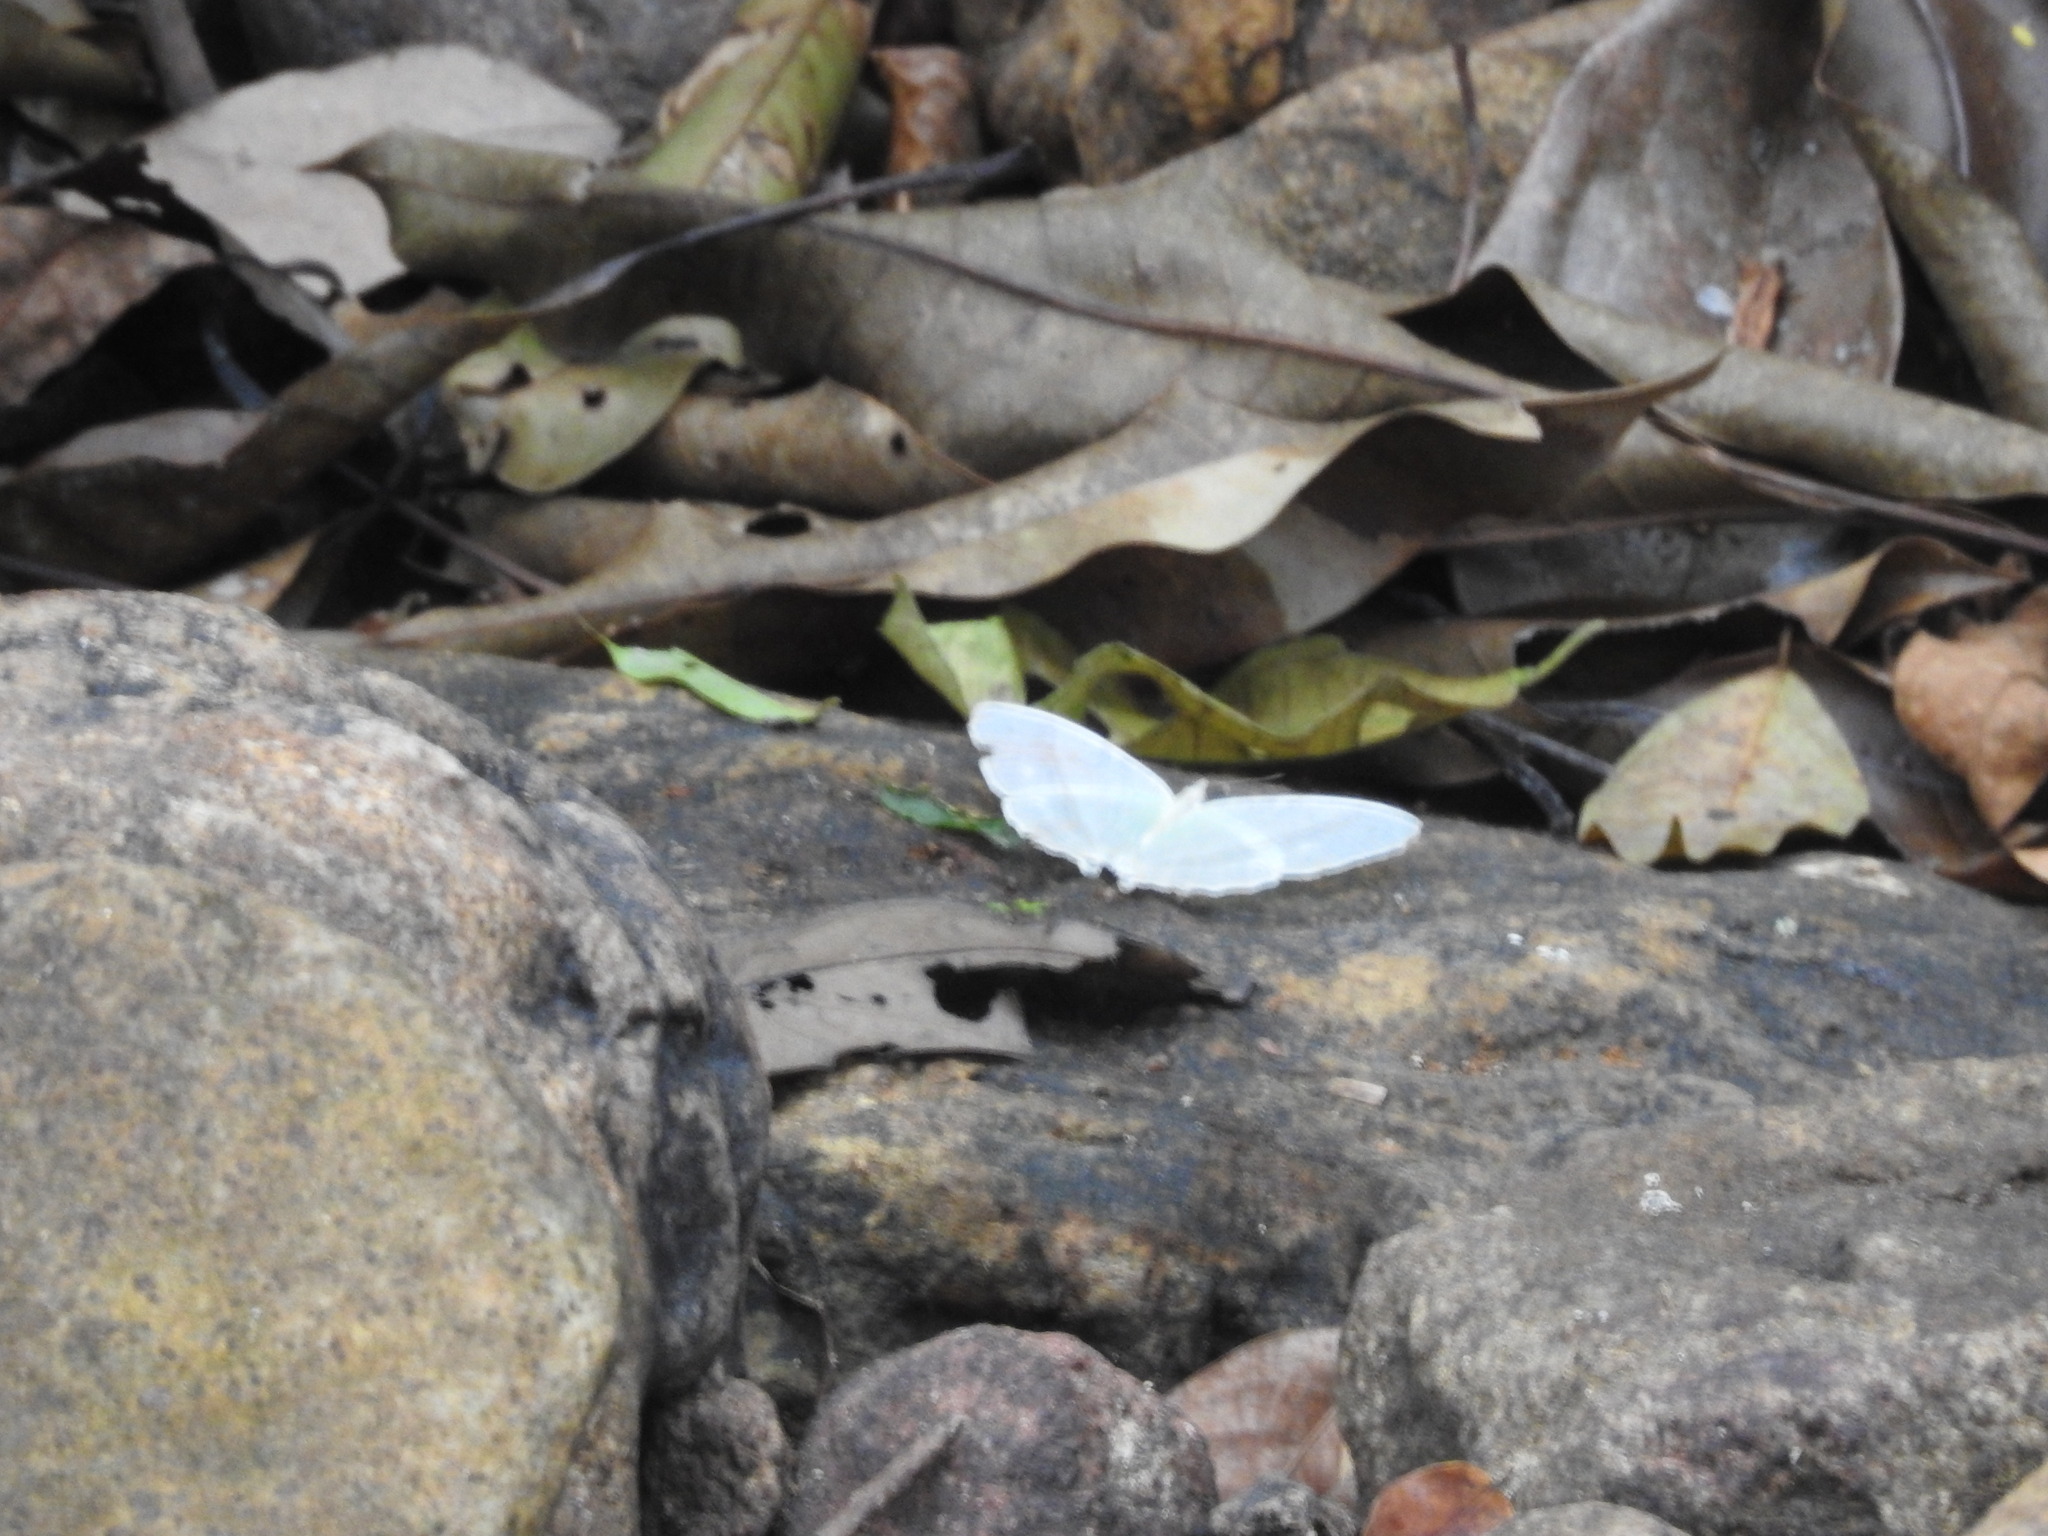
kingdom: Animalia
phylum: Arthropoda
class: Insecta
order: Lepidoptera
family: Nymphalidae
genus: Cyrestis
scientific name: Cyrestis cocles
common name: Marbled map
